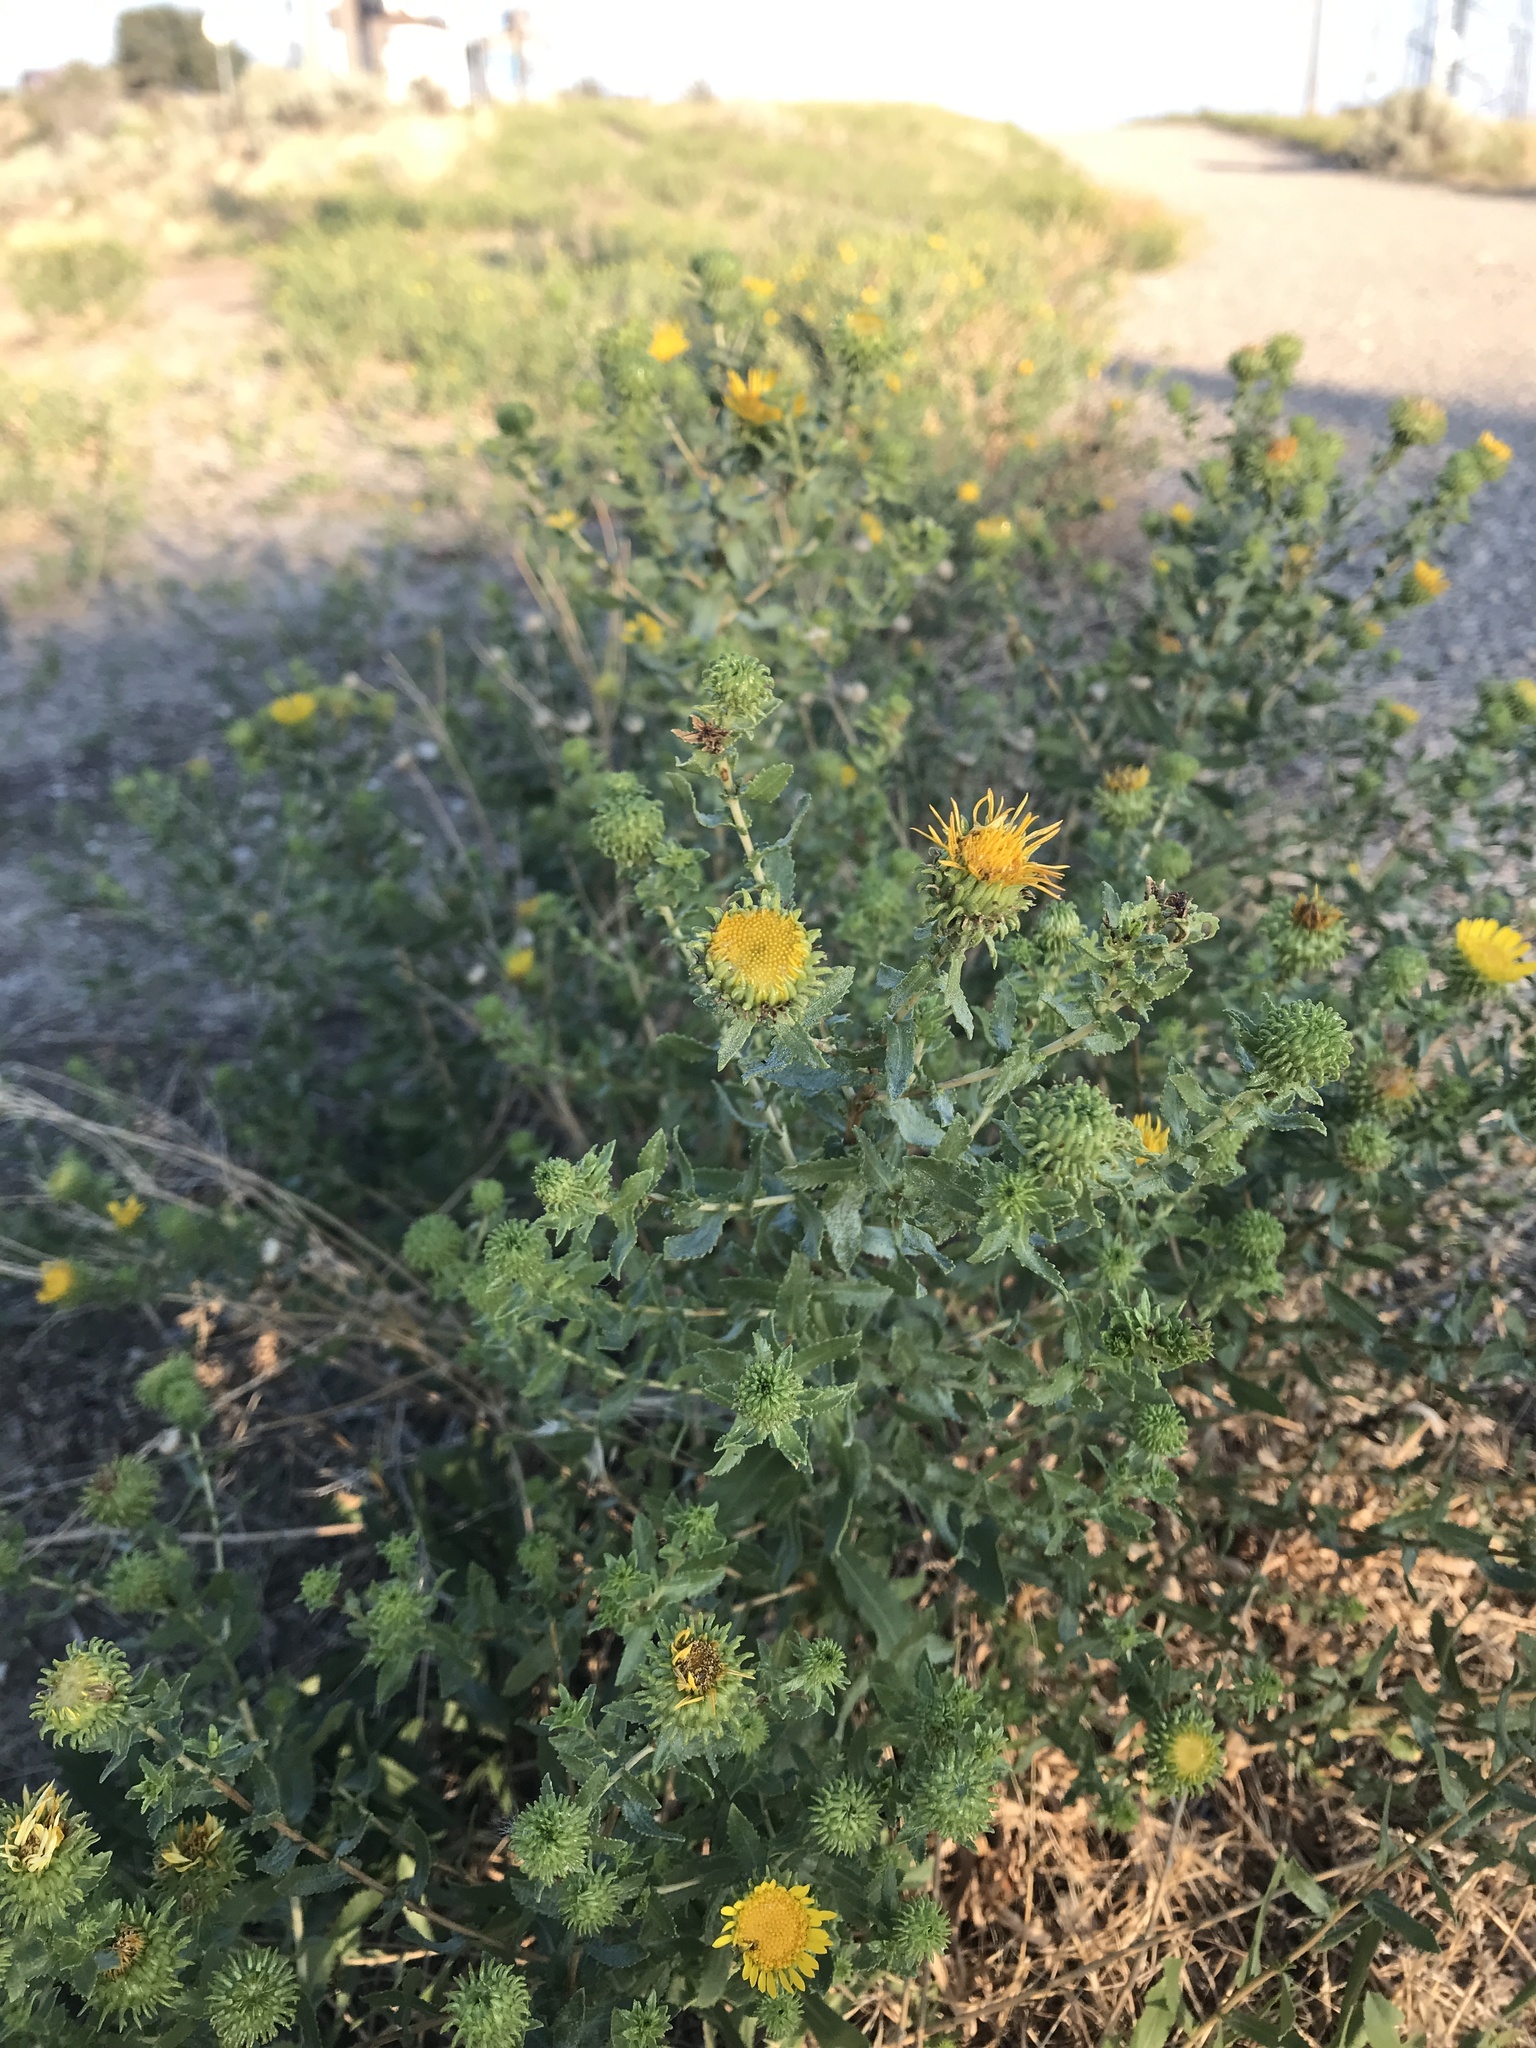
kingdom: Plantae
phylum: Tracheophyta
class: Magnoliopsida
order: Asterales
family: Asteraceae
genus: Grindelia
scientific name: Grindelia squarrosa
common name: Curly-cup gumweed
